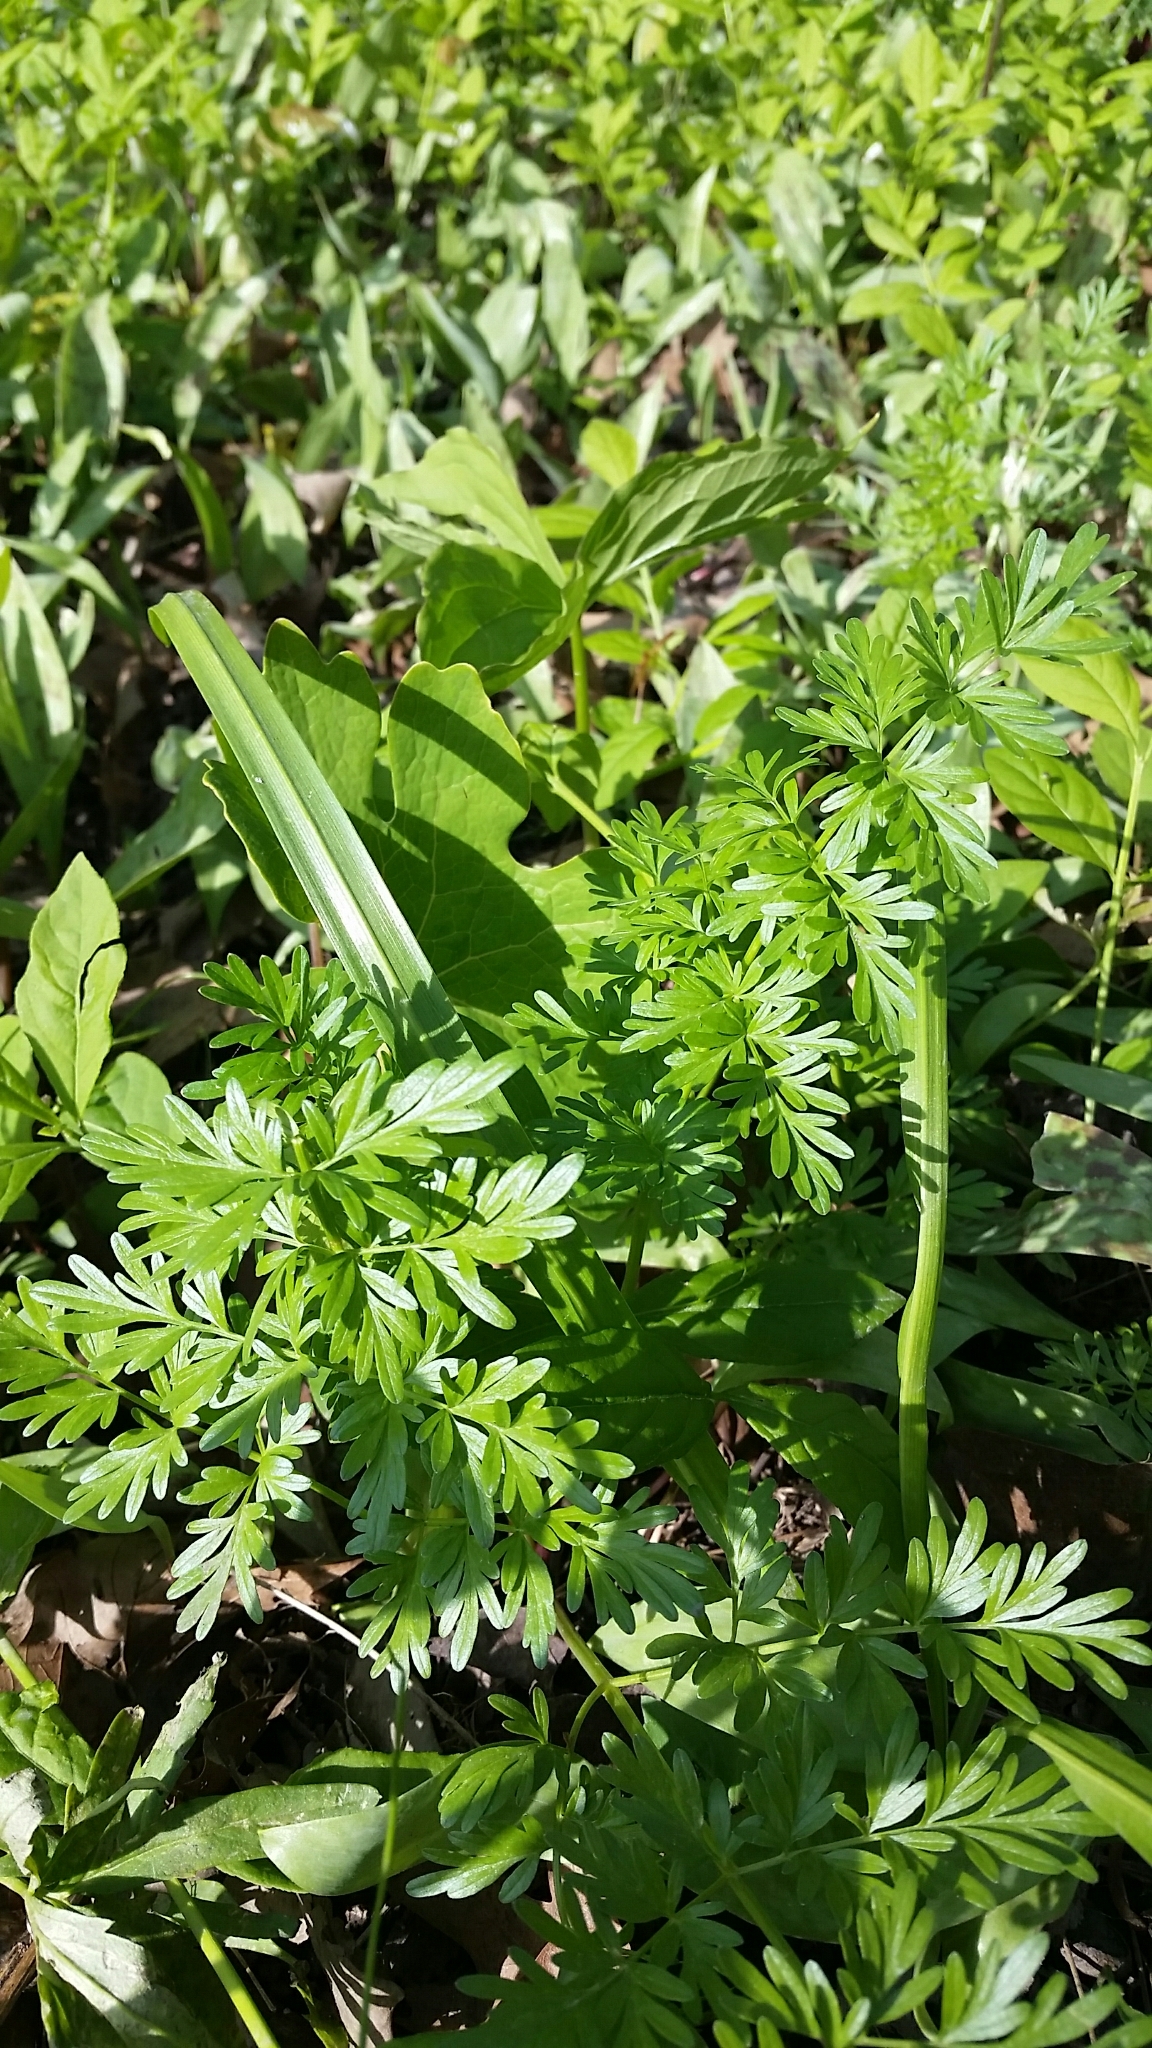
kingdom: Plantae
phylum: Tracheophyta
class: Magnoliopsida
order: Apiales
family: Apiaceae
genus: Perideridia
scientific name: Perideridia americana
